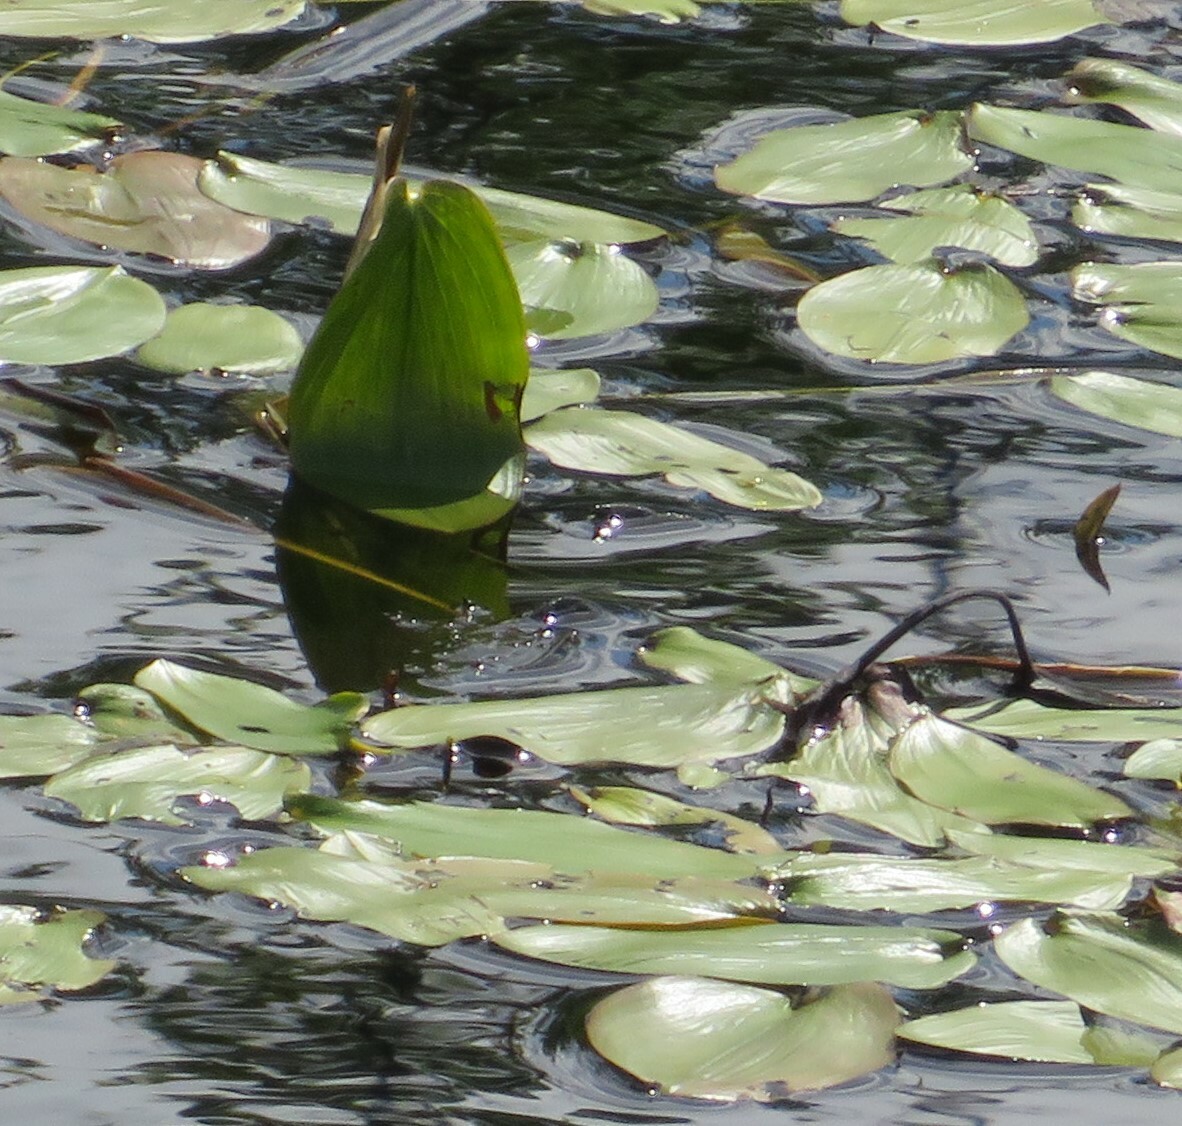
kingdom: Plantae
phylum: Tracheophyta
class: Liliopsida
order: Alismatales
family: Potamogetonaceae
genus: Potamogeton
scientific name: Potamogeton natans
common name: Broad-leaved pondweed
